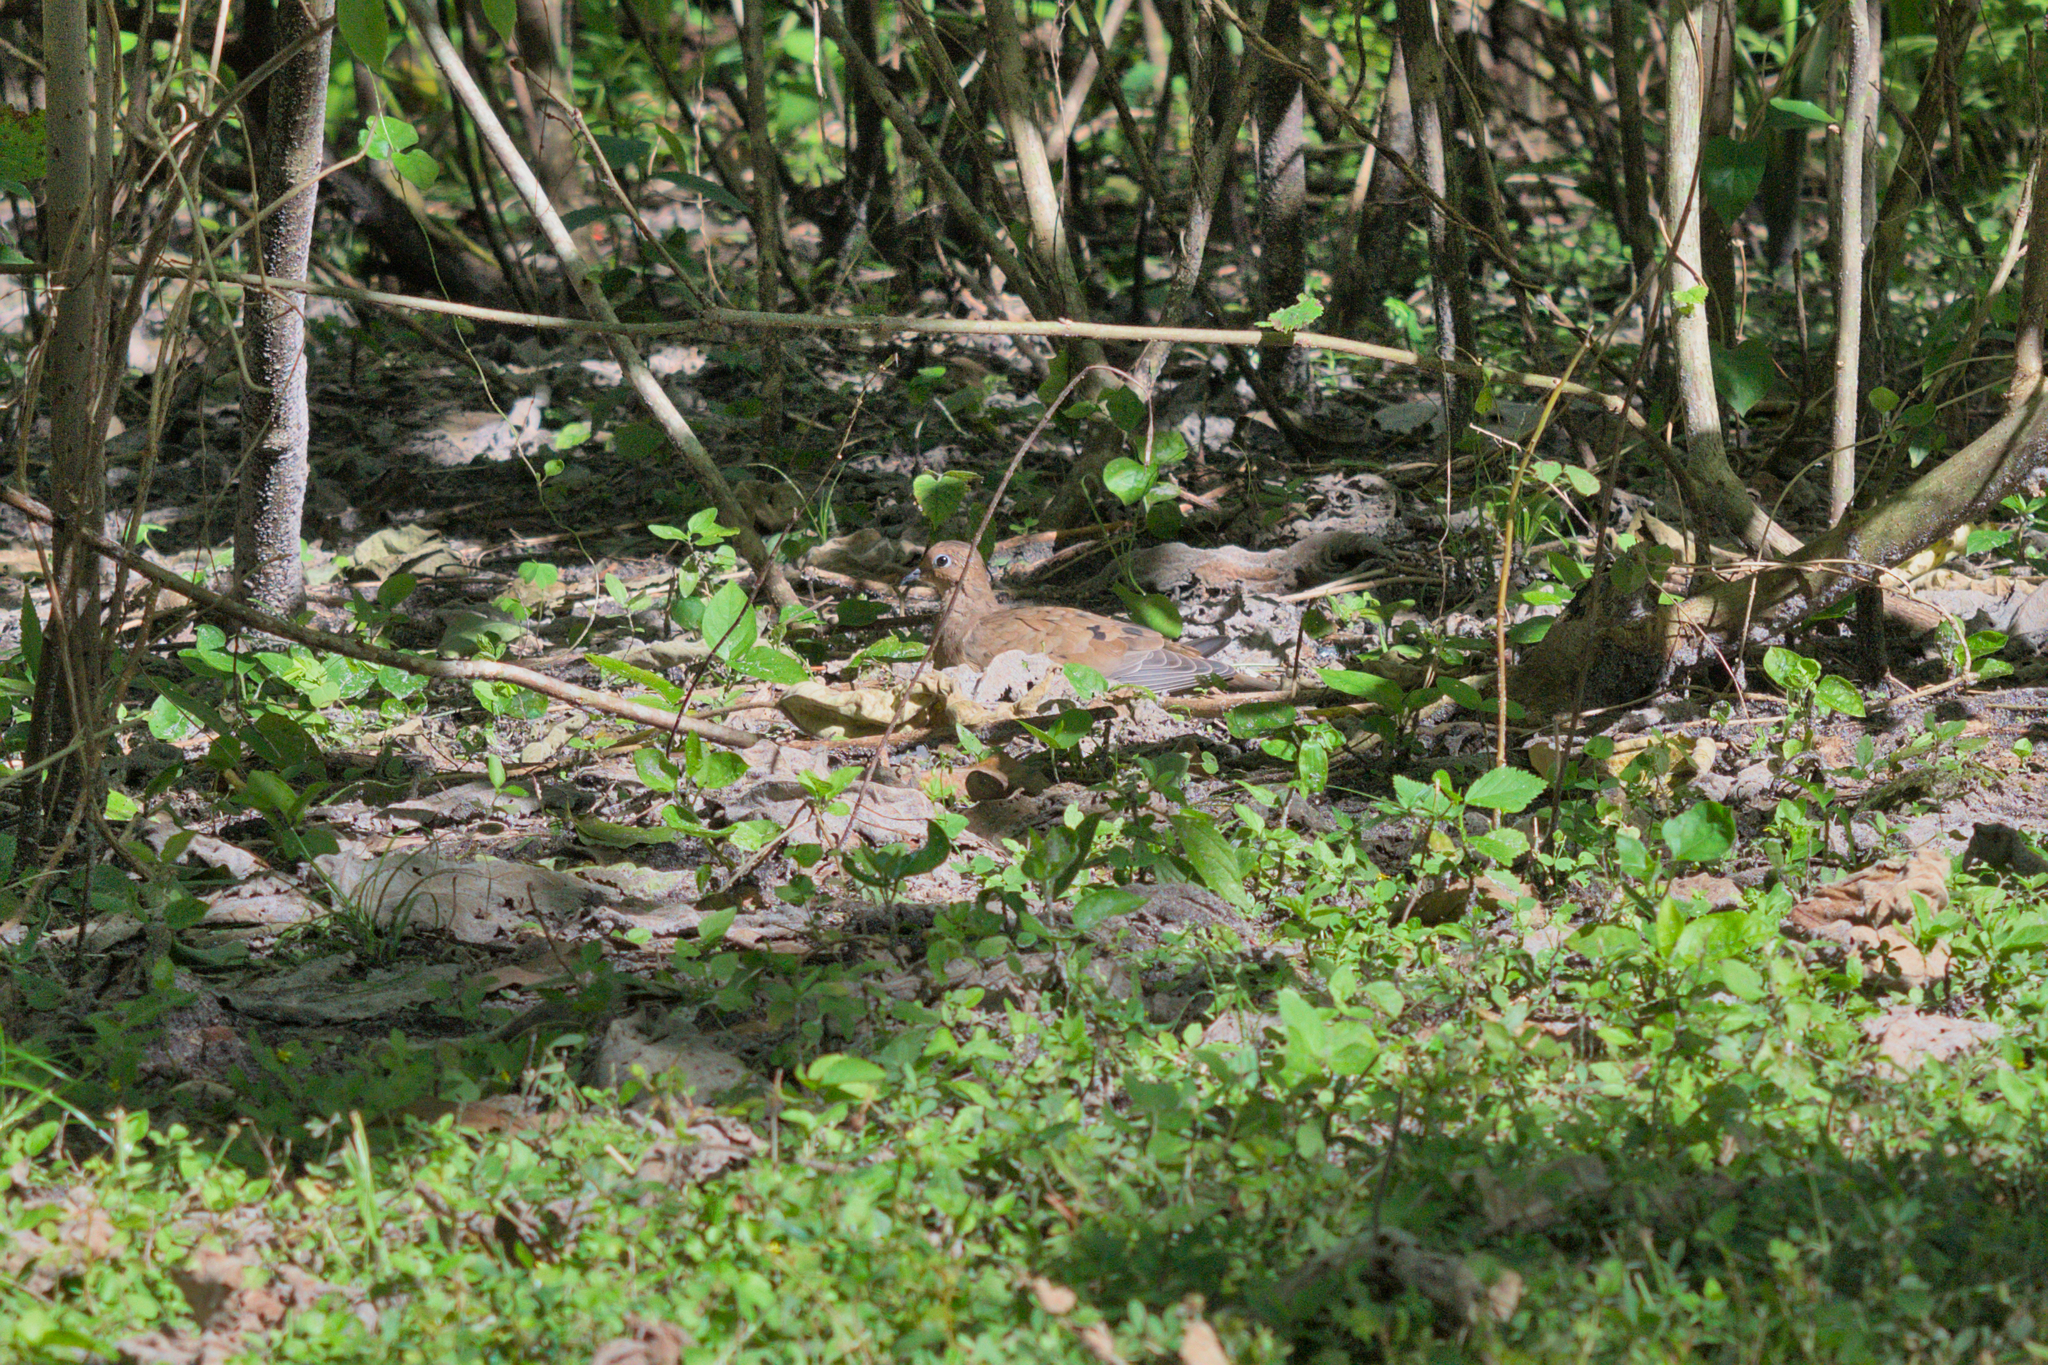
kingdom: Animalia
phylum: Chordata
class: Aves
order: Columbiformes
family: Columbidae
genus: Zenaida
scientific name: Zenaida macroura
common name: Mourning dove
